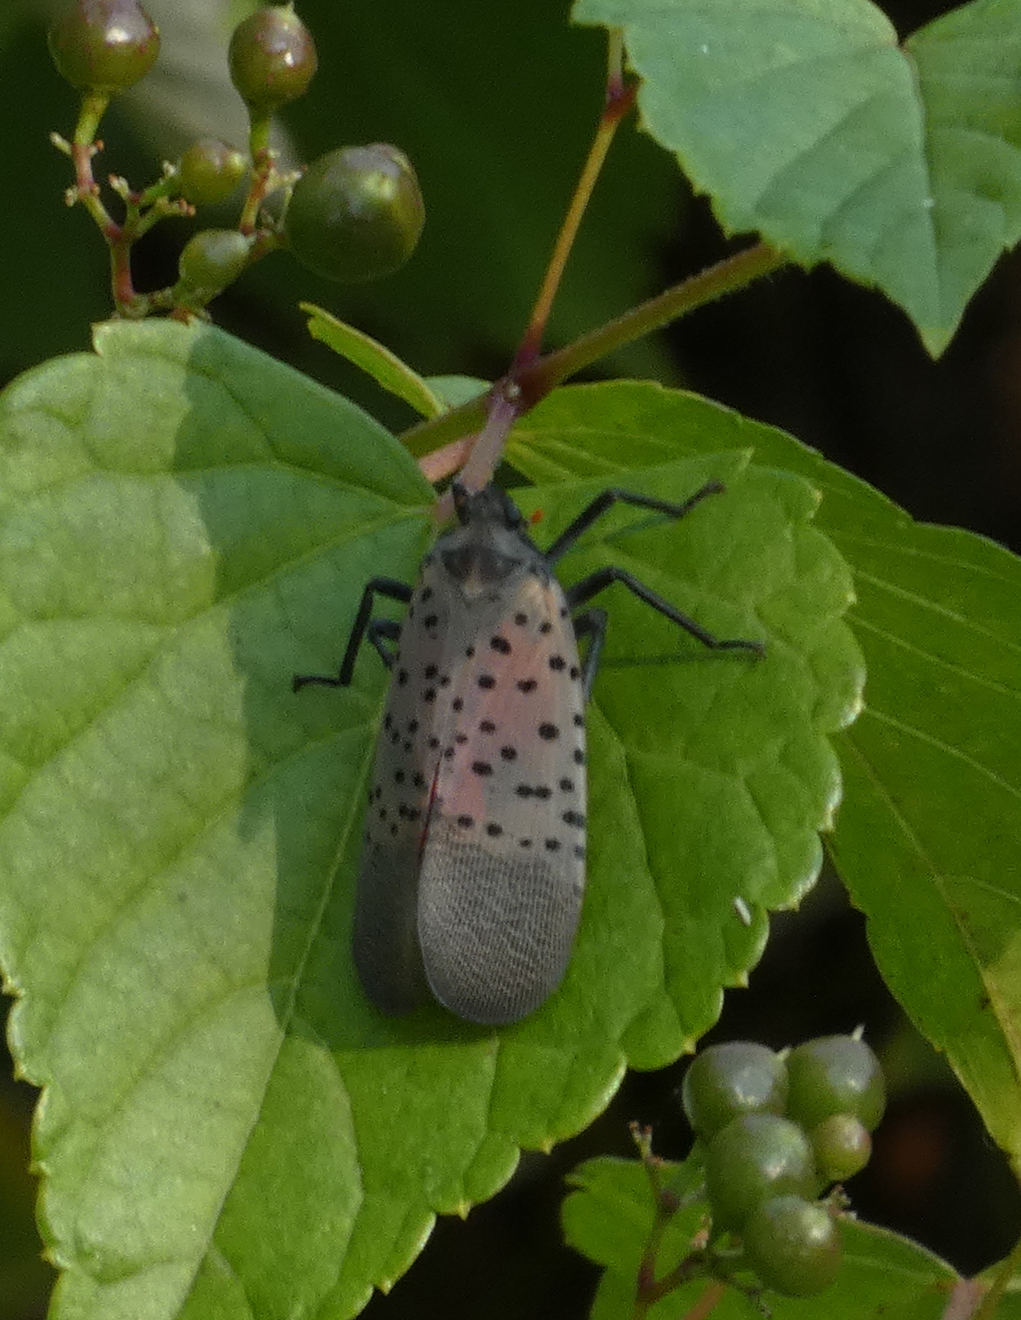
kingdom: Animalia
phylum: Arthropoda
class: Insecta
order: Hemiptera
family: Fulgoridae
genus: Lycorma
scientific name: Lycorma delicatula
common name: Spotted lanternfly
